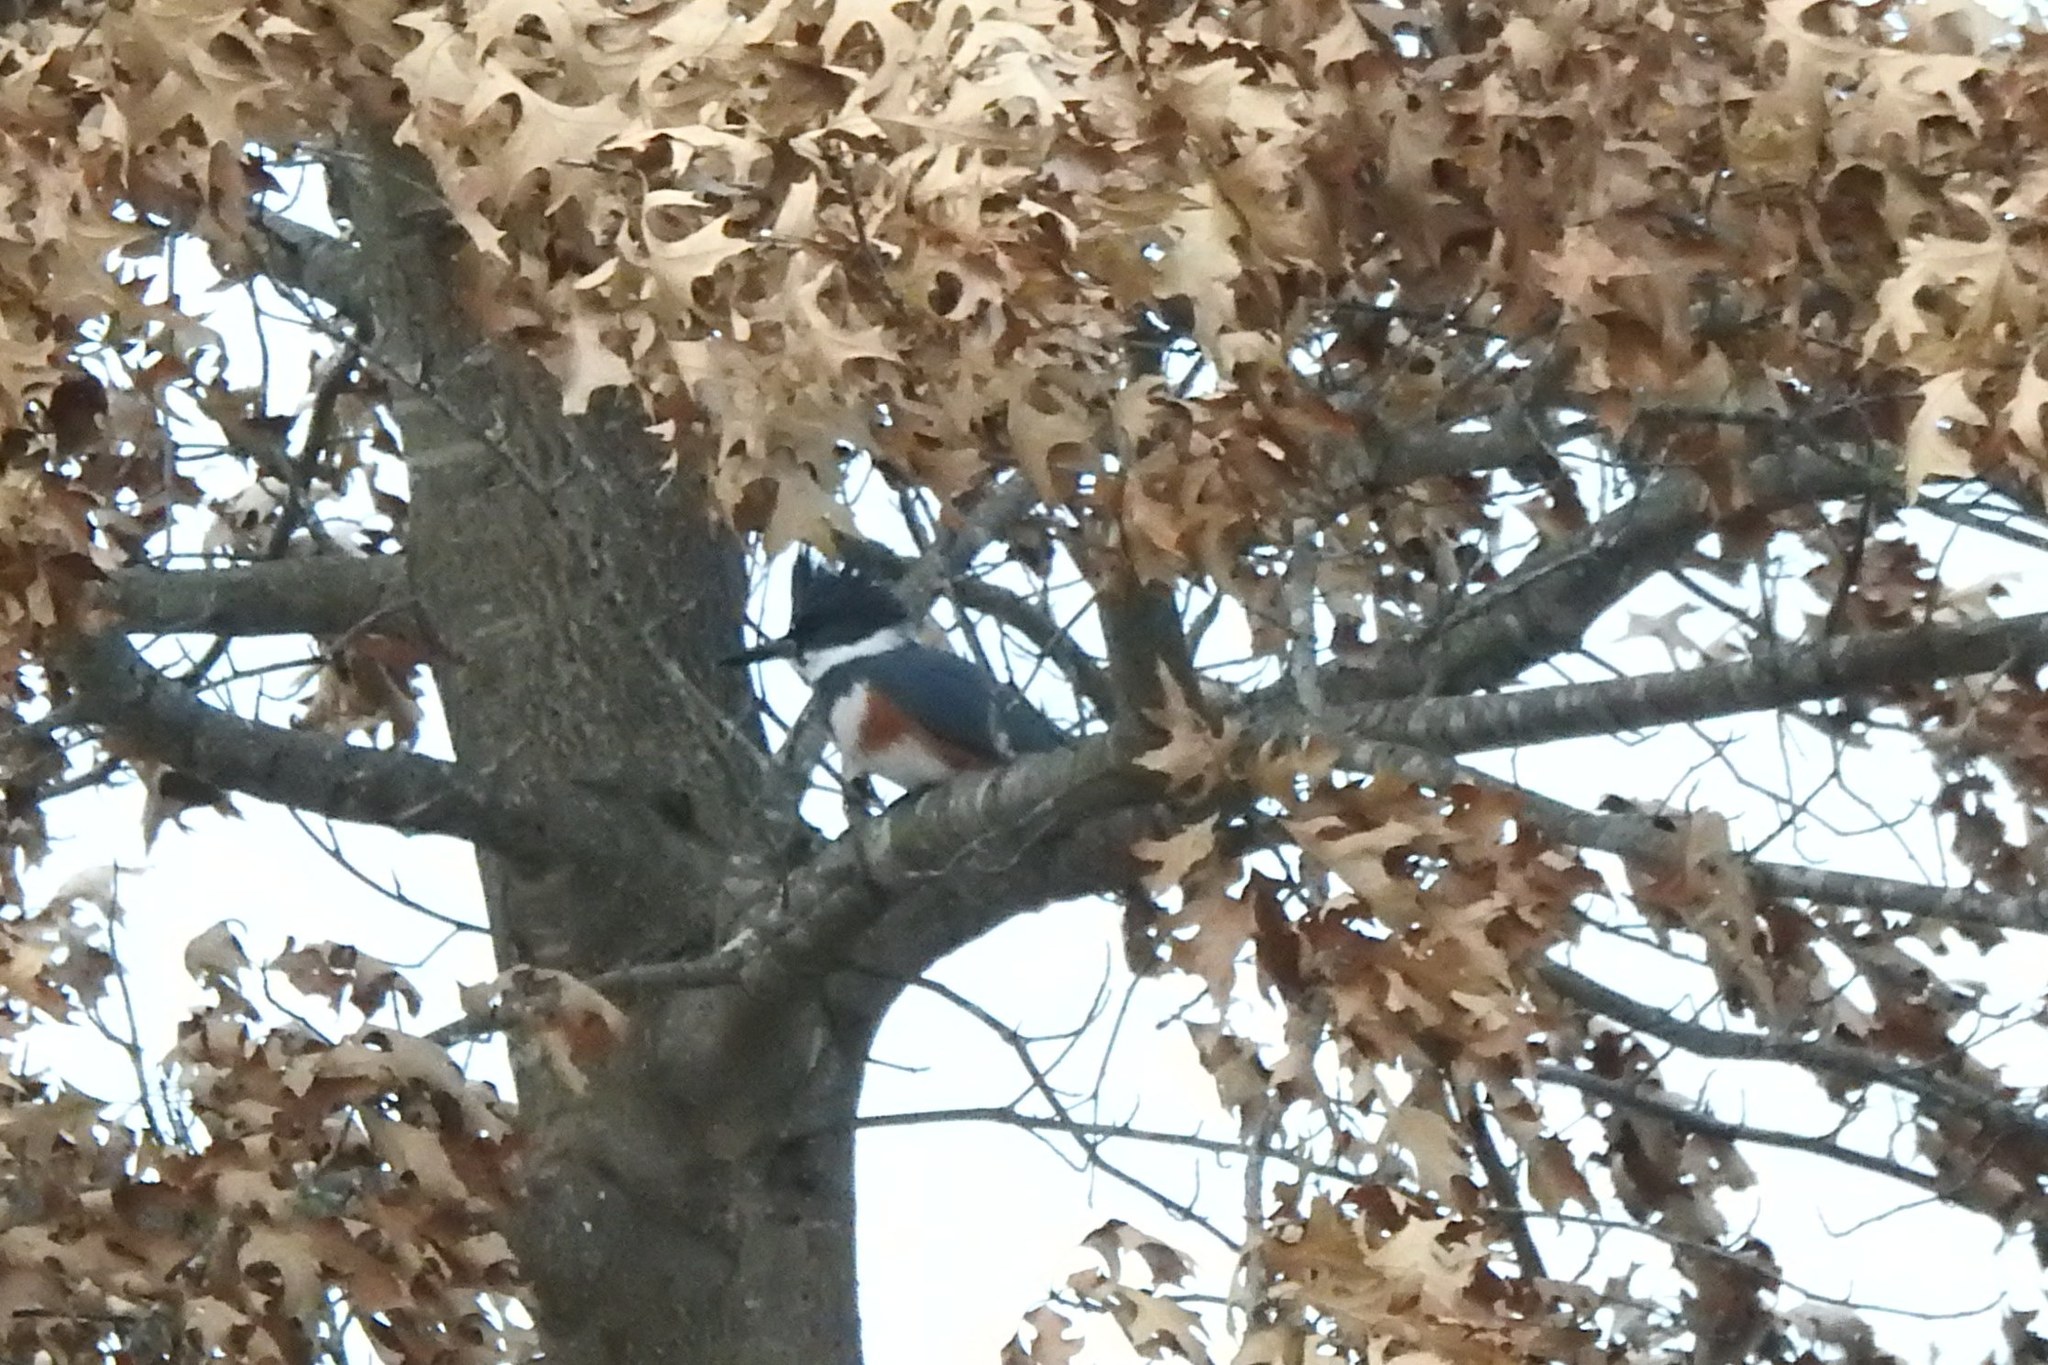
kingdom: Animalia
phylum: Chordata
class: Aves
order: Coraciiformes
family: Alcedinidae
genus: Megaceryle
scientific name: Megaceryle alcyon
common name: Belted kingfisher
